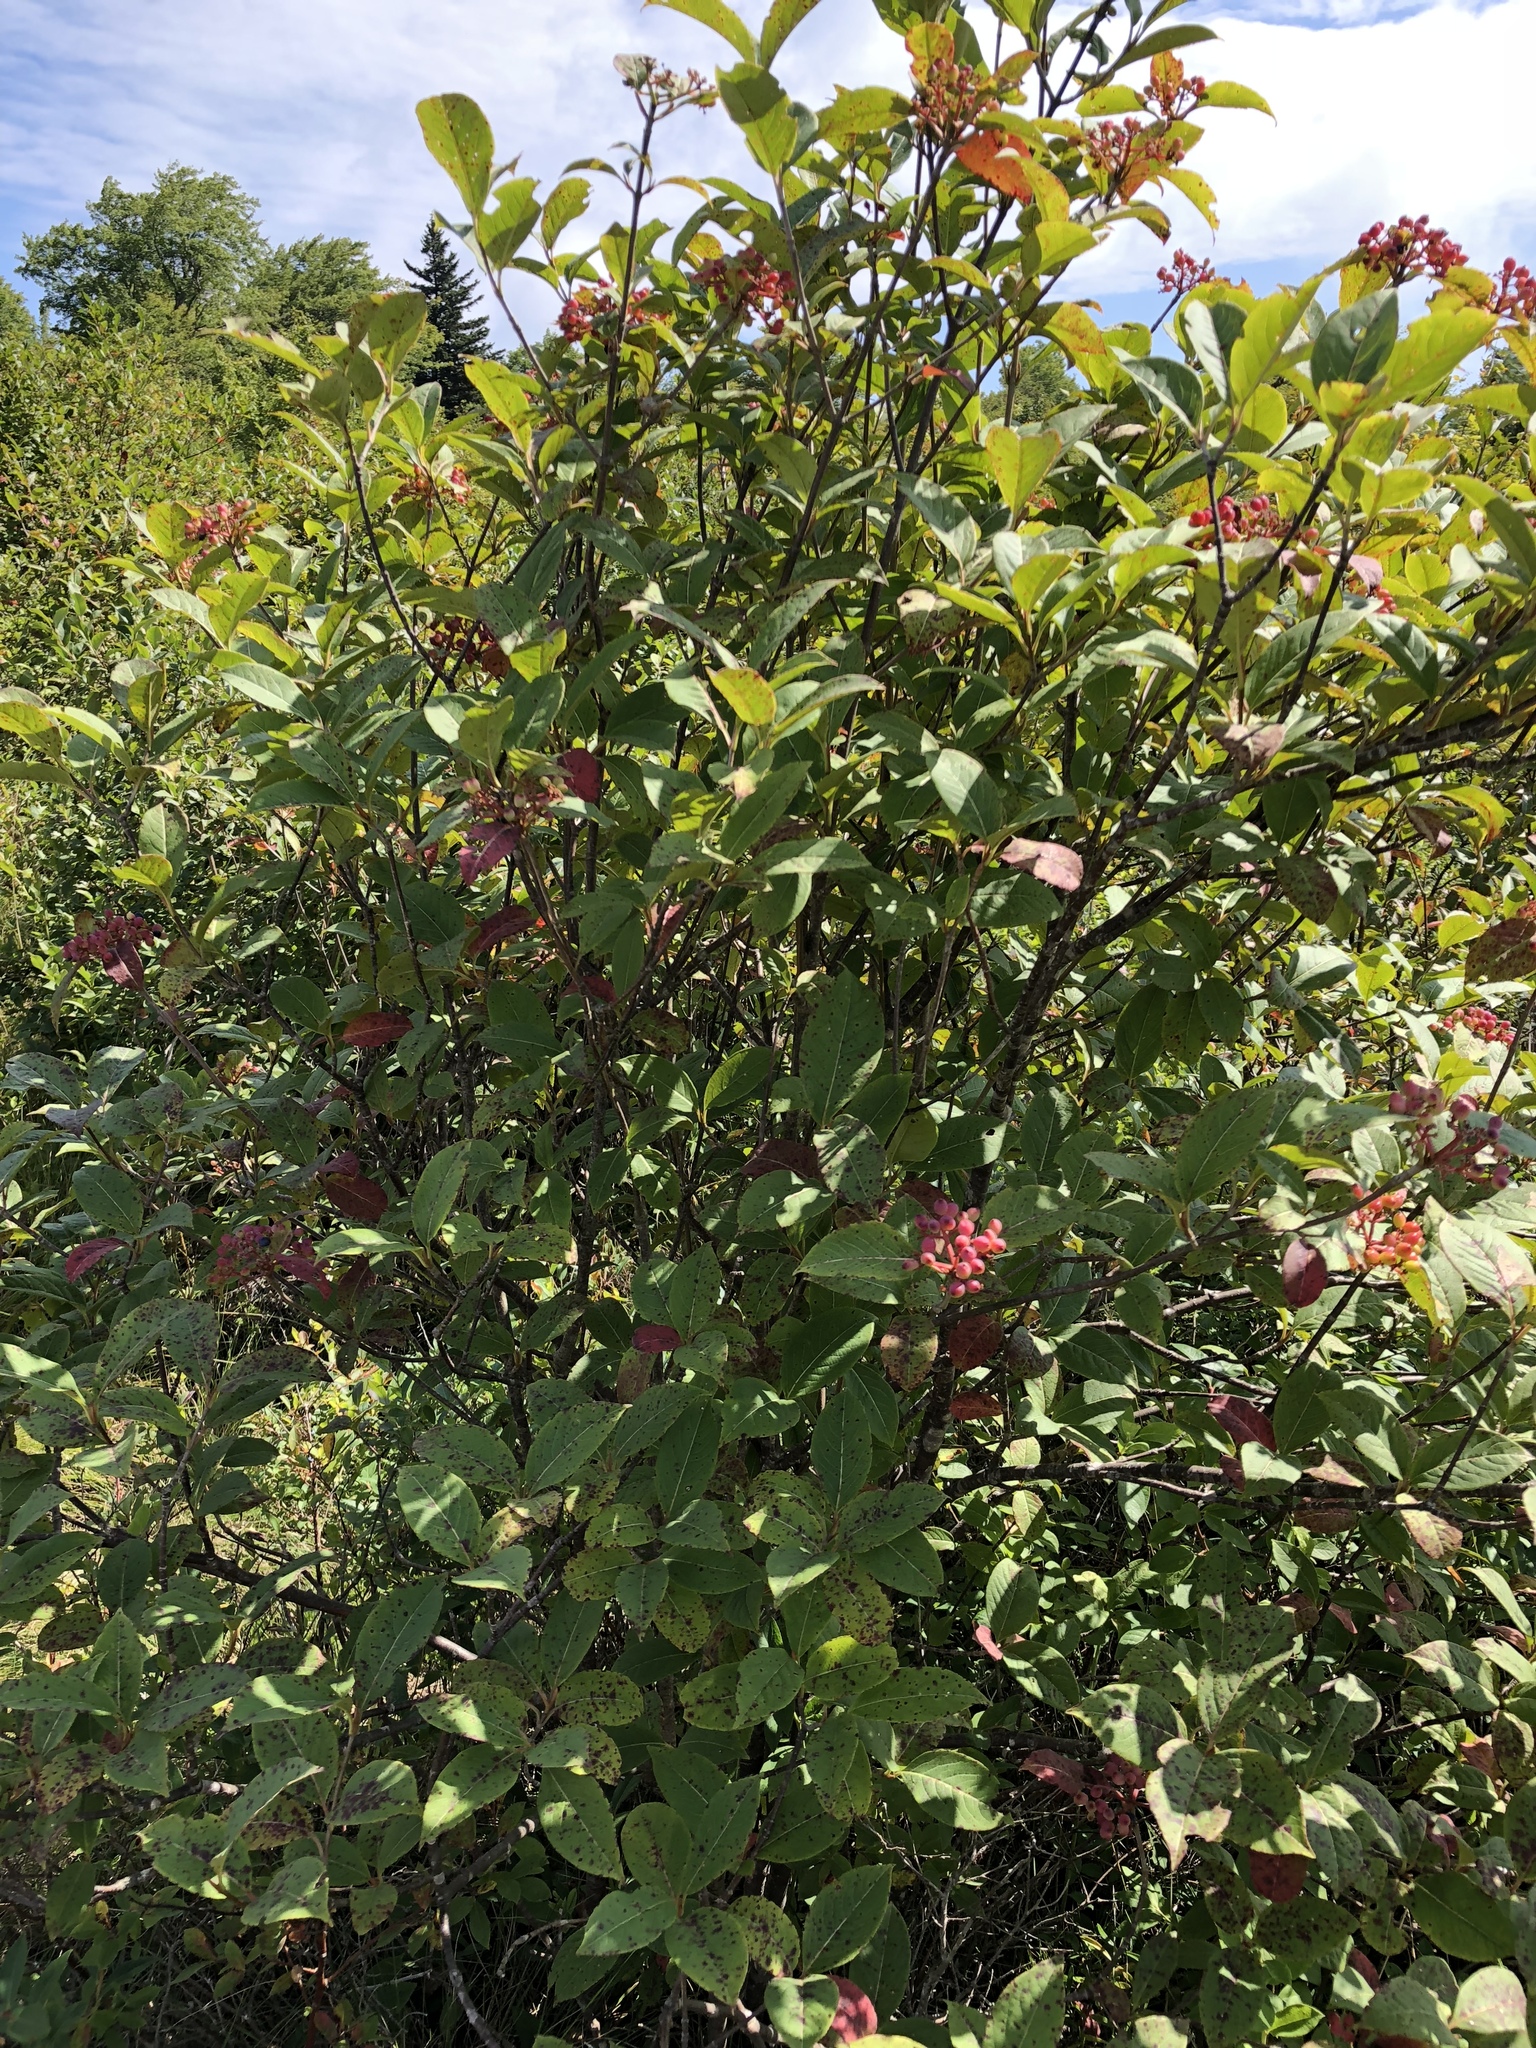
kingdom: Plantae
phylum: Tracheophyta
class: Magnoliopsida
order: Dipsacales
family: Viburnaceae
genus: Viburnum
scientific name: Viburnum cassinoides
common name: Swamp haw
